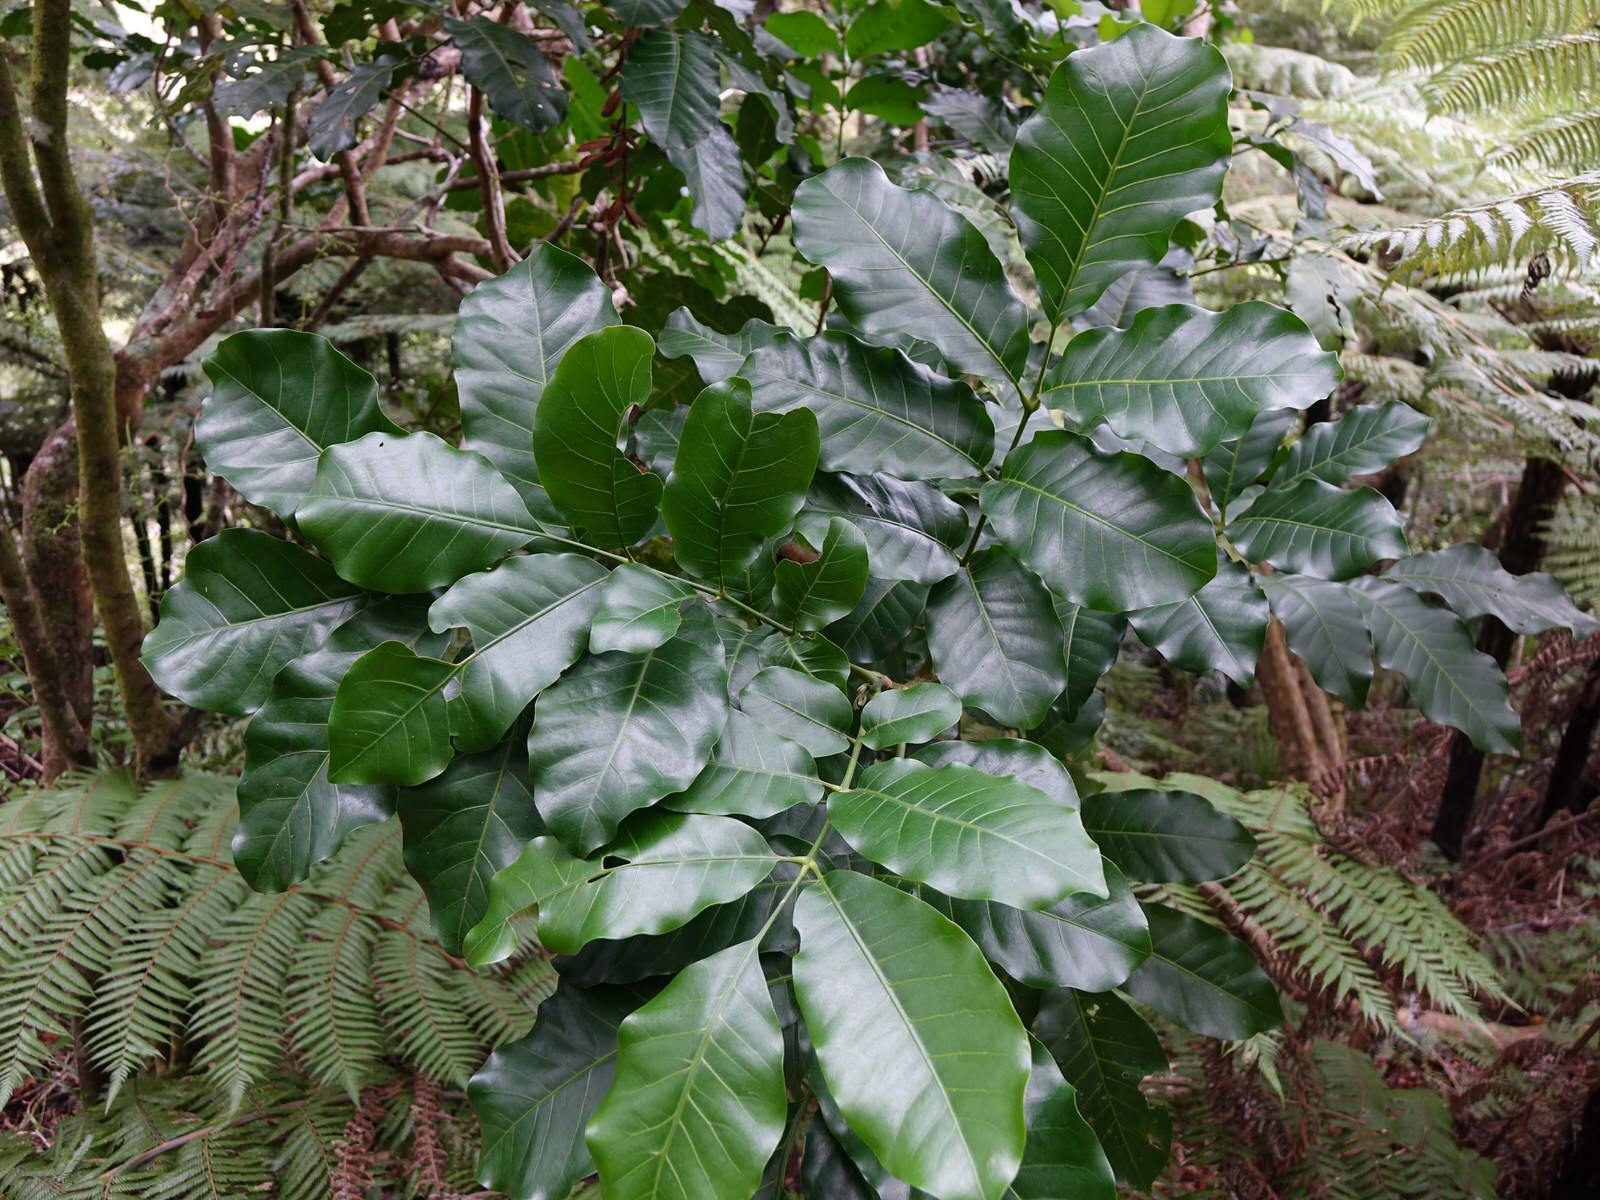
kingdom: Plantae
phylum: Tracheophyta
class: Magnoliopsida
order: Sapindales
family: Meliaceae
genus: Didymocheton
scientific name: Didymocheton spectabilis
